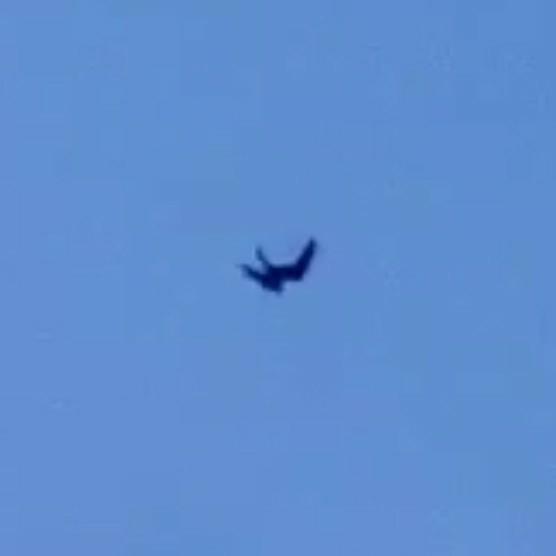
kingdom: Animalia
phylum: Chordata
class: Aves
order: Caprimulgiformes
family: Caprimulgidae
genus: Chordeiles
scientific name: Chordeiles minor
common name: Common nighthawk
